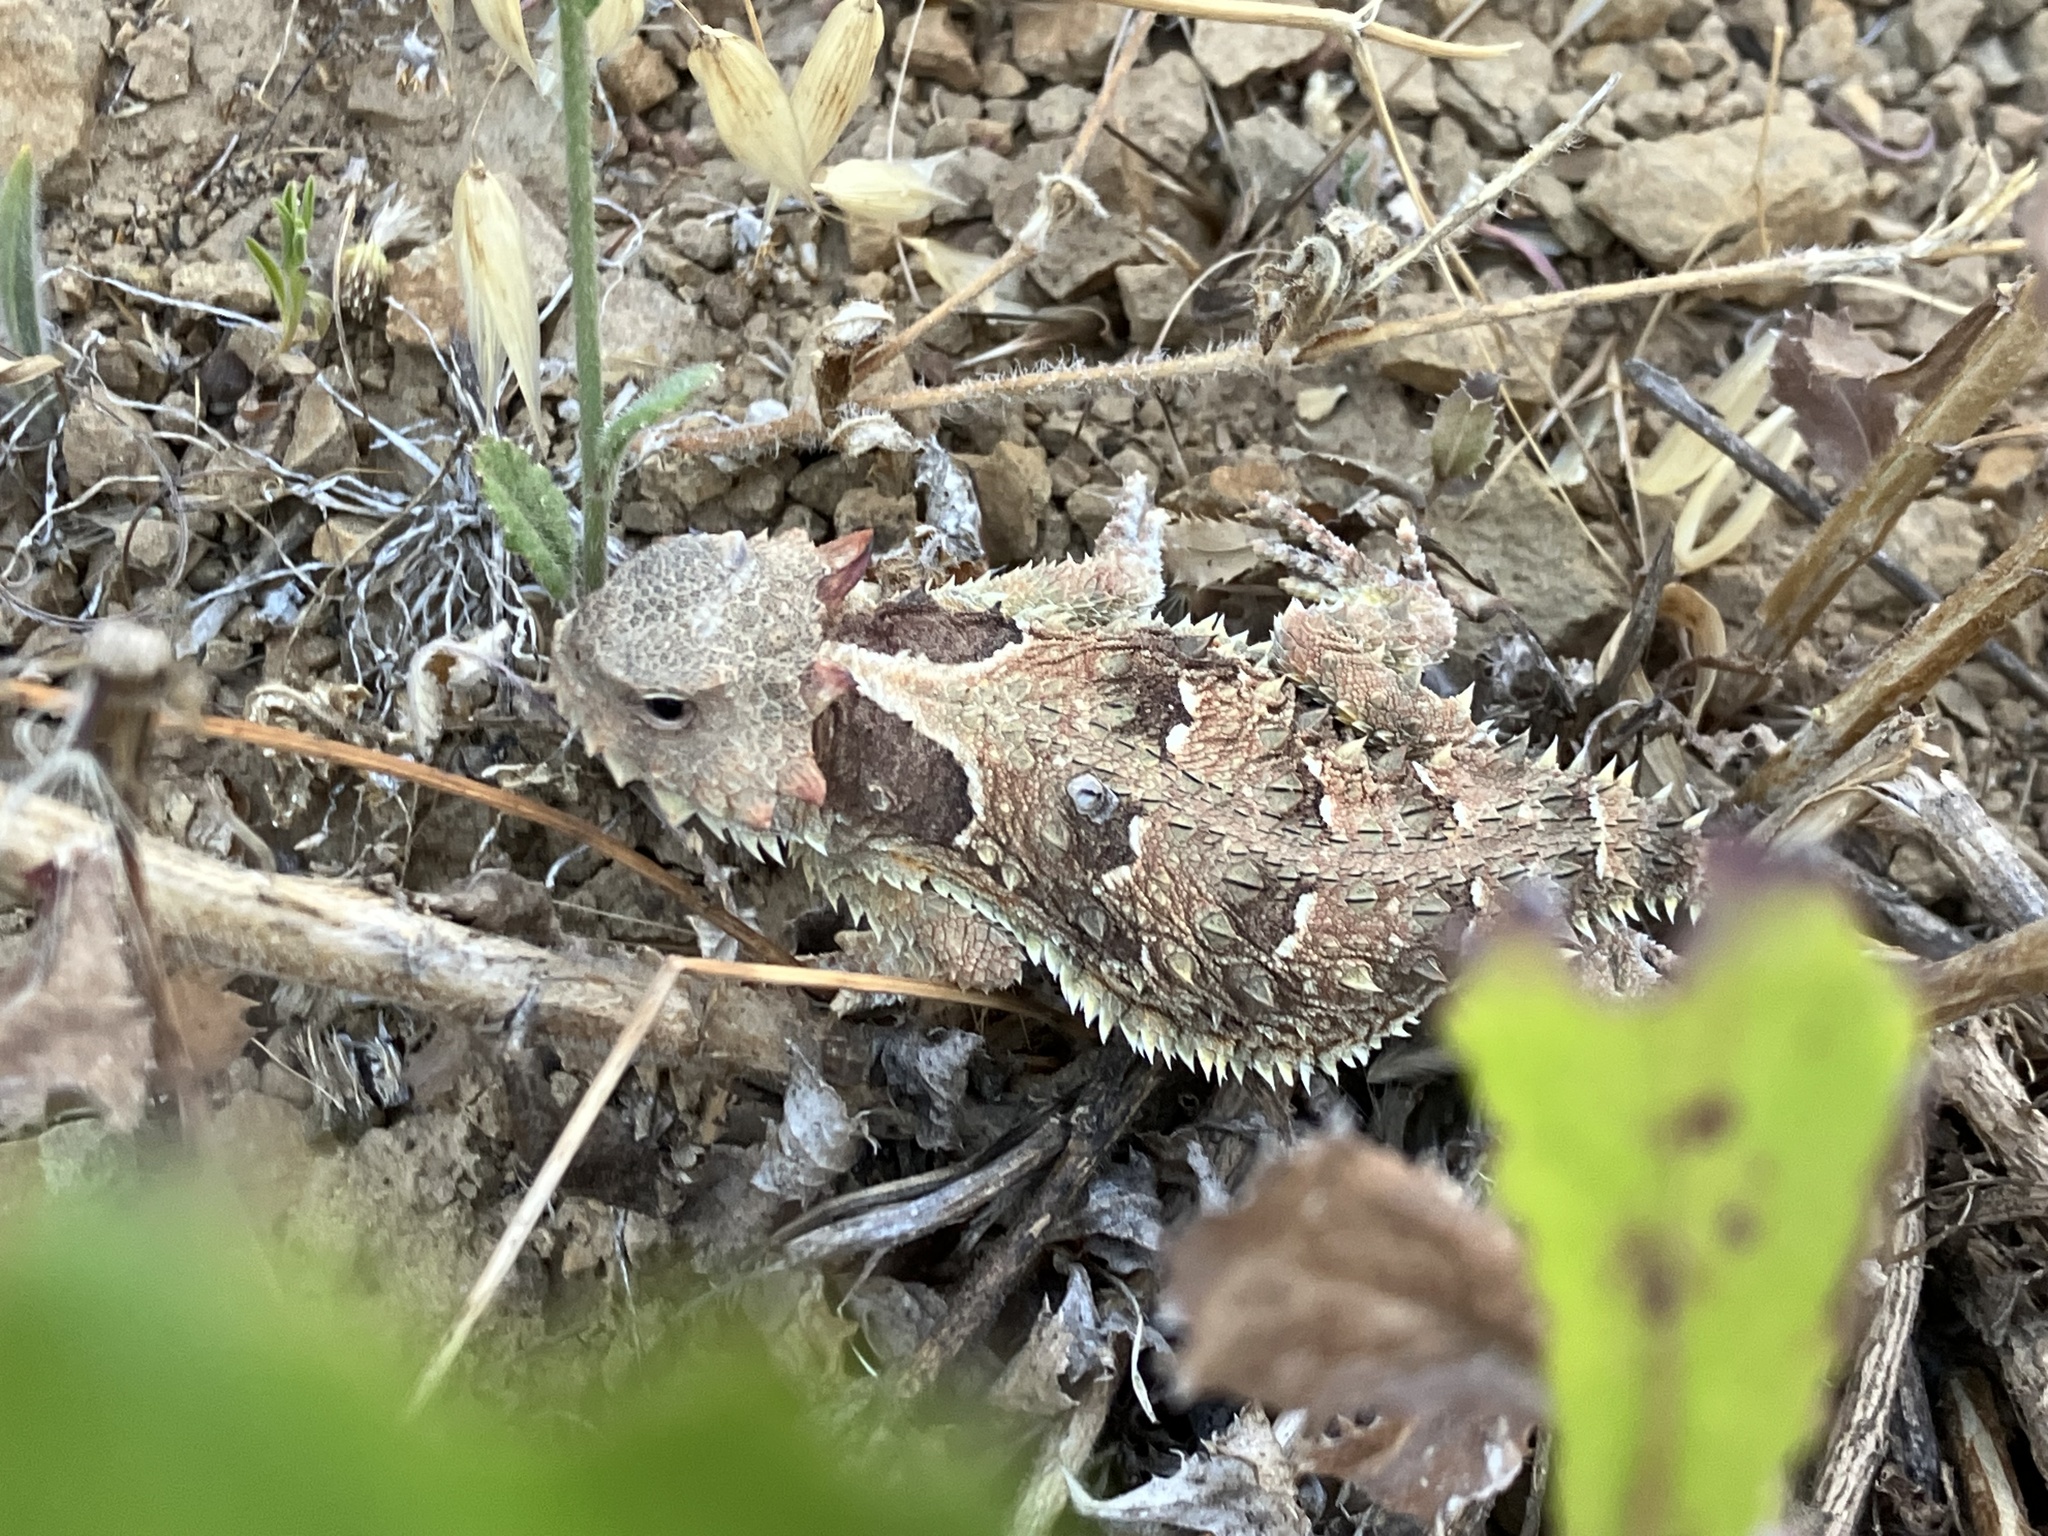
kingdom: Animalia
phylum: Chordata
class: Squamata
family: Phrynosomatidae
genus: Phrynosoma
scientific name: Phrynosoma blainvillii
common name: San diego horned lizard
